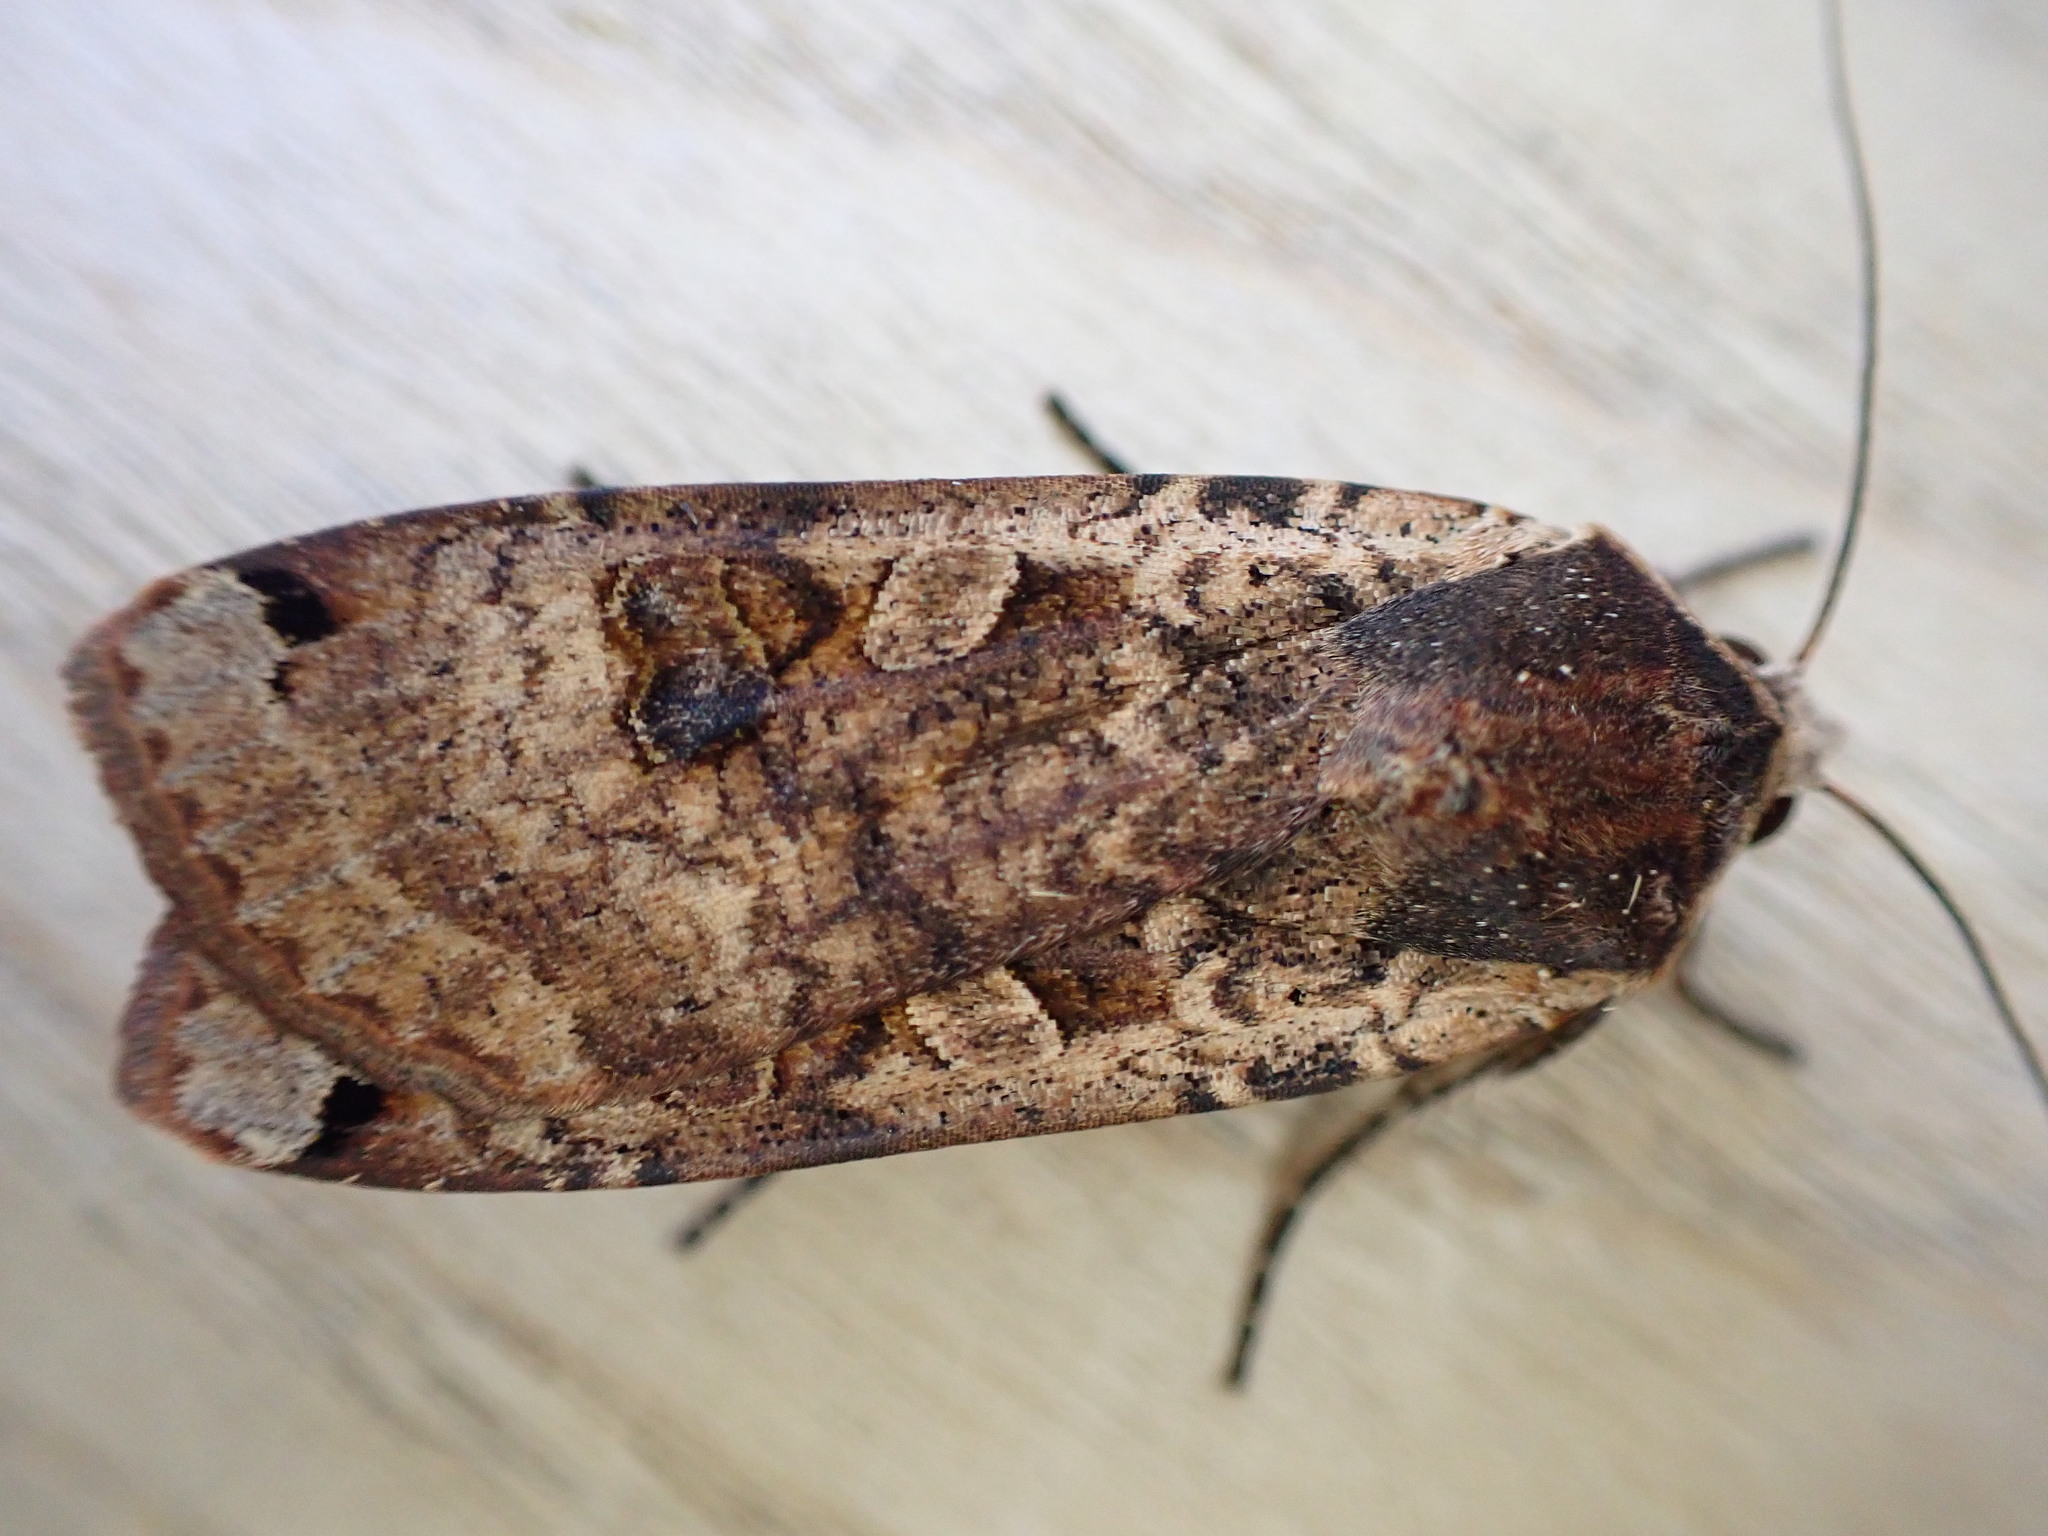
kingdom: Animalia
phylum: Arthropoda
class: Insecta
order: Lepidoptera
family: Noctuidae
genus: Noctua
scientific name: Noctua pronuba
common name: Large yellow underwing
